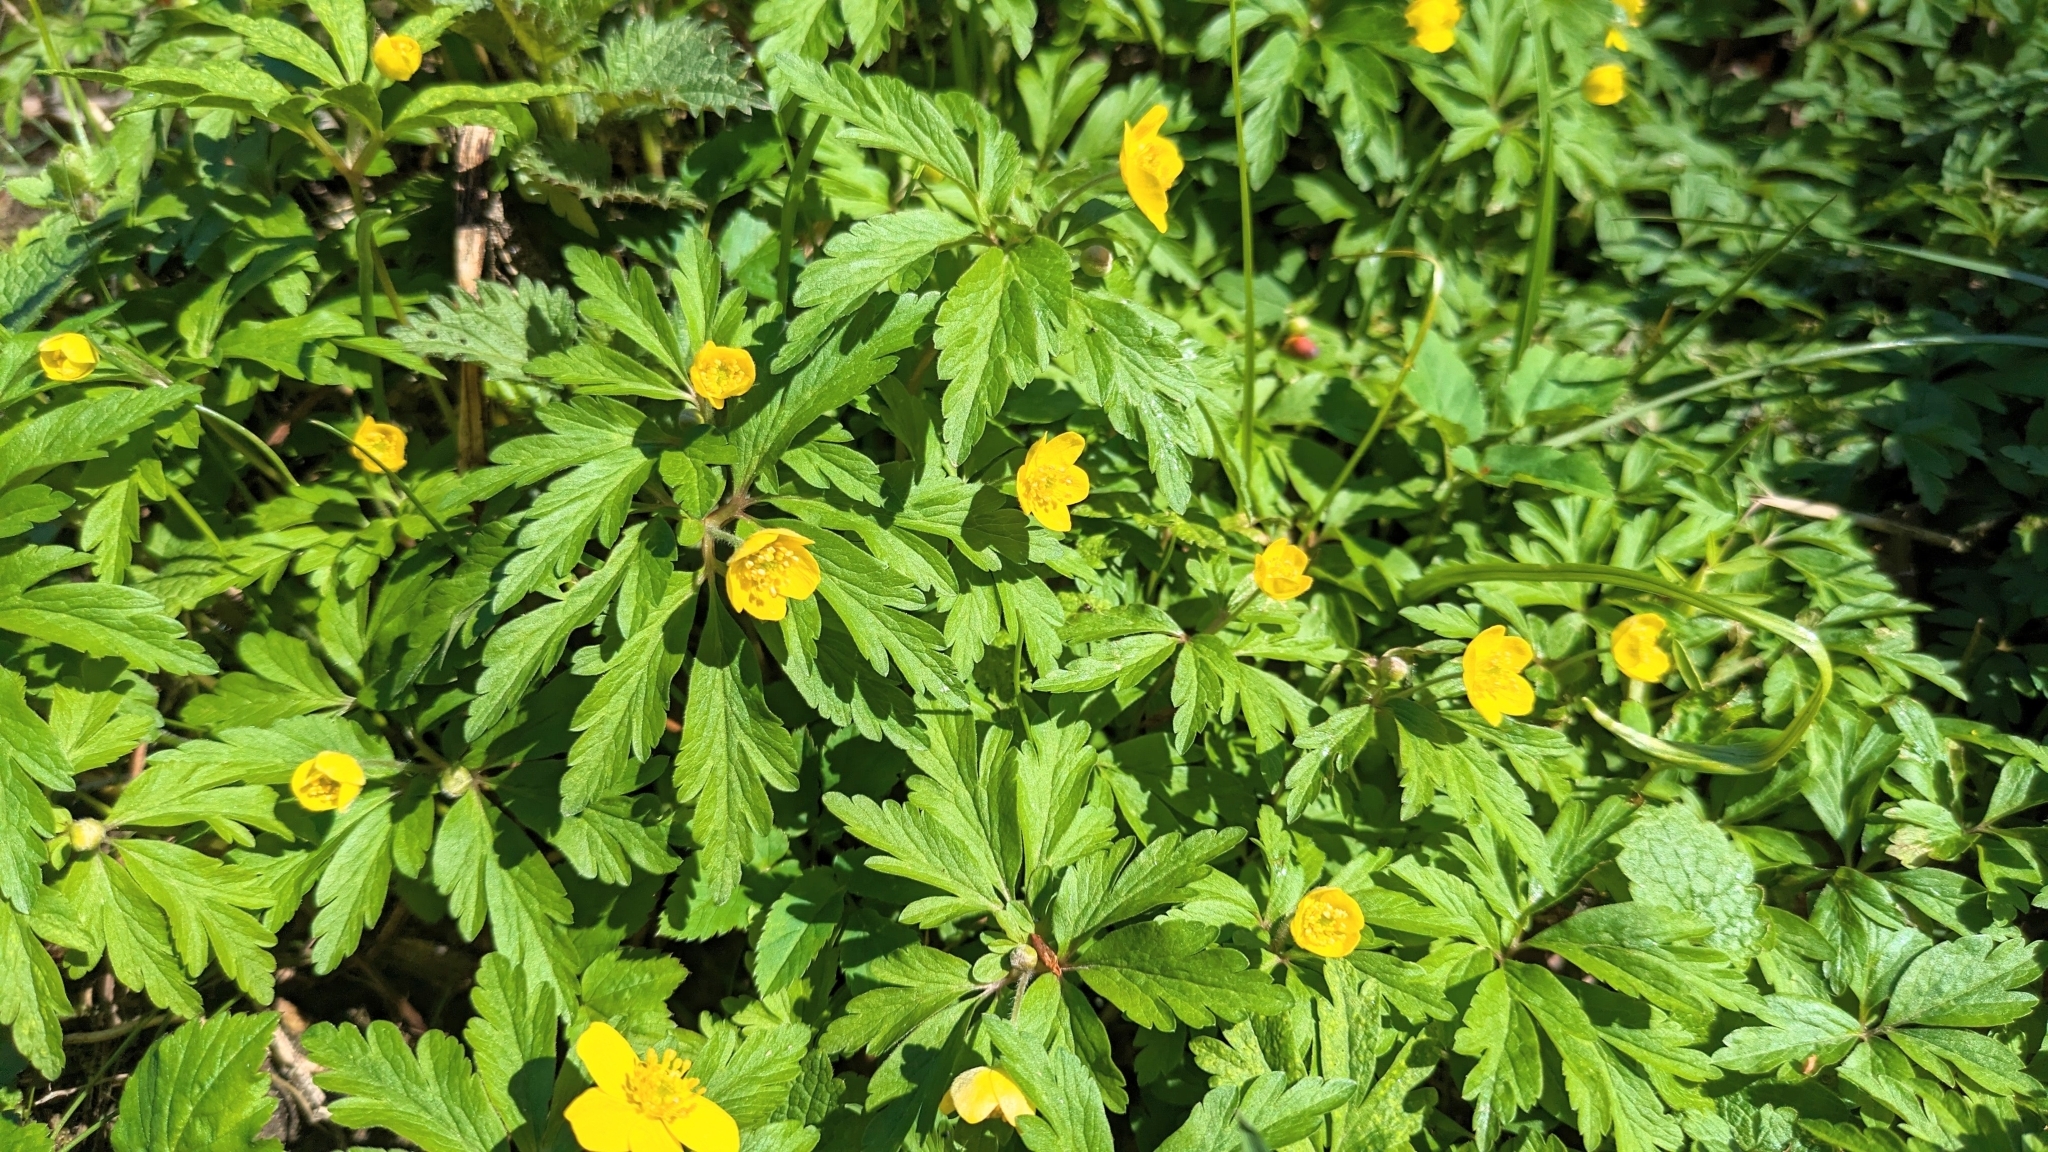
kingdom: Plantae
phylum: Tracheophyta
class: Magnoliopsida
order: Ranunculales
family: Ranunculaceae
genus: Anemone
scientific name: Anemone ranunculoides
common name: Yellow anemone
